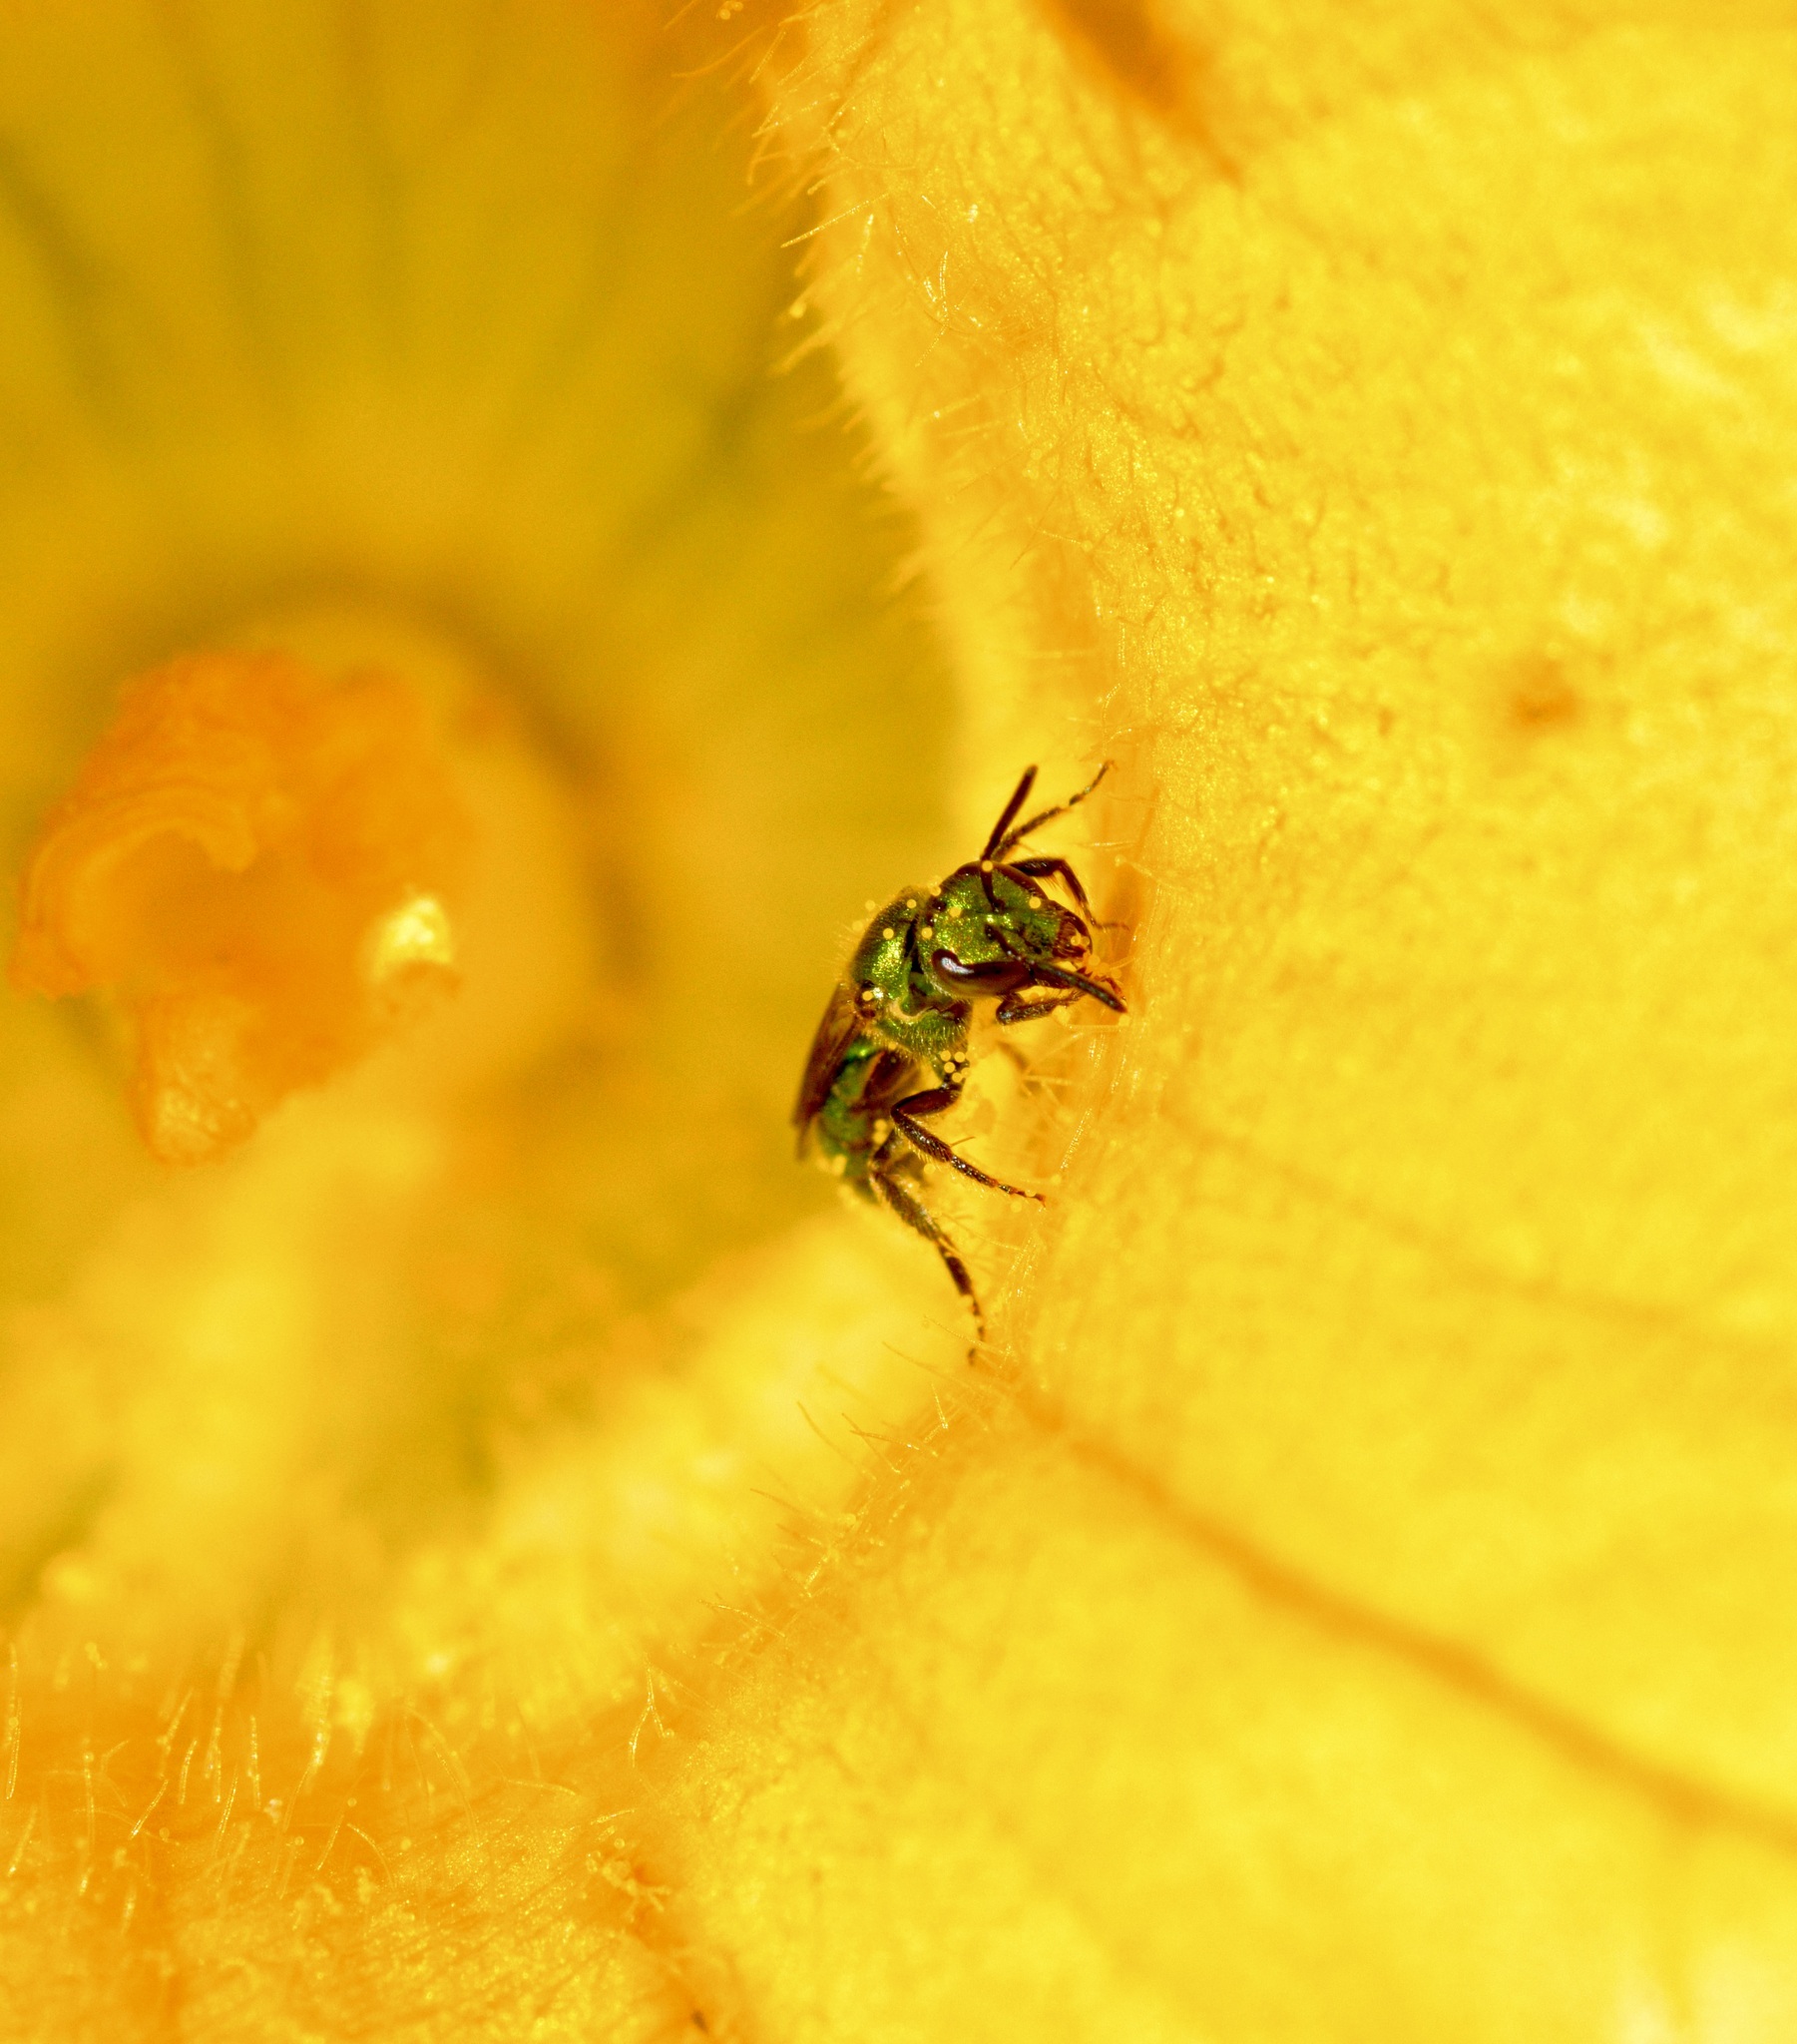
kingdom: Animalia
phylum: Arthropoda
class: Insecta
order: Hymenoptera
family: Halictidae
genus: Augochlora
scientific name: Augochlora pura
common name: Pure green sweat bee
